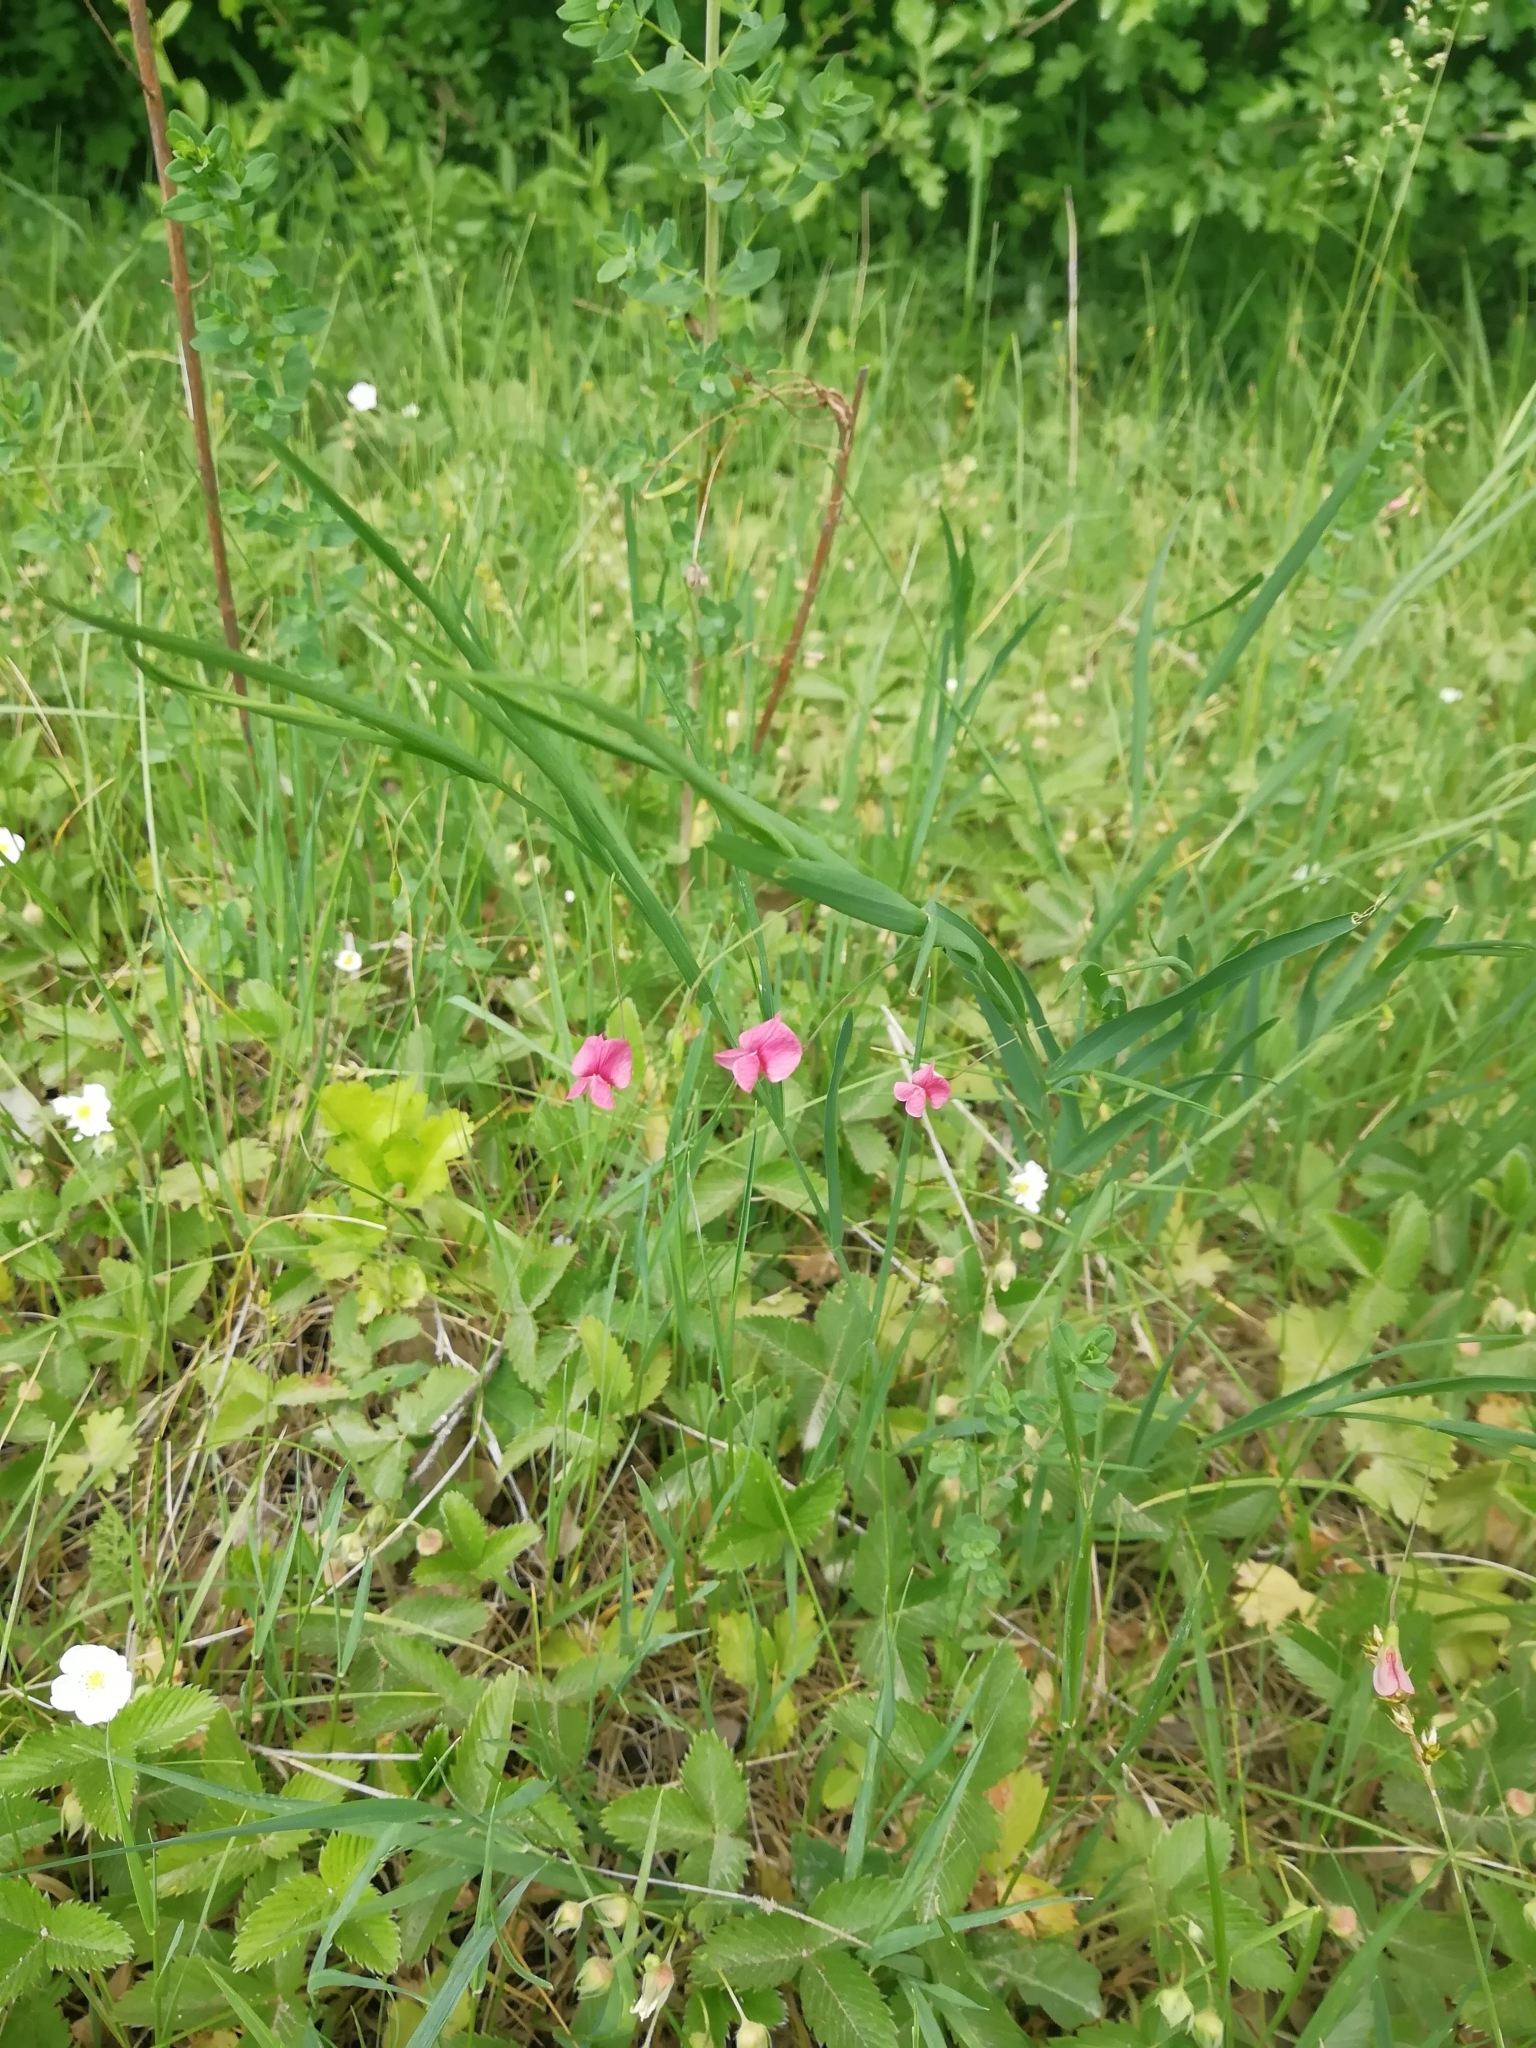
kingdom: Plantae
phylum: Tracheophyta
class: Magnoliopsida
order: Fabales
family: Fabaceae
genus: Lathyrus
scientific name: Lathyrus nissolia
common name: Grass vetchling
